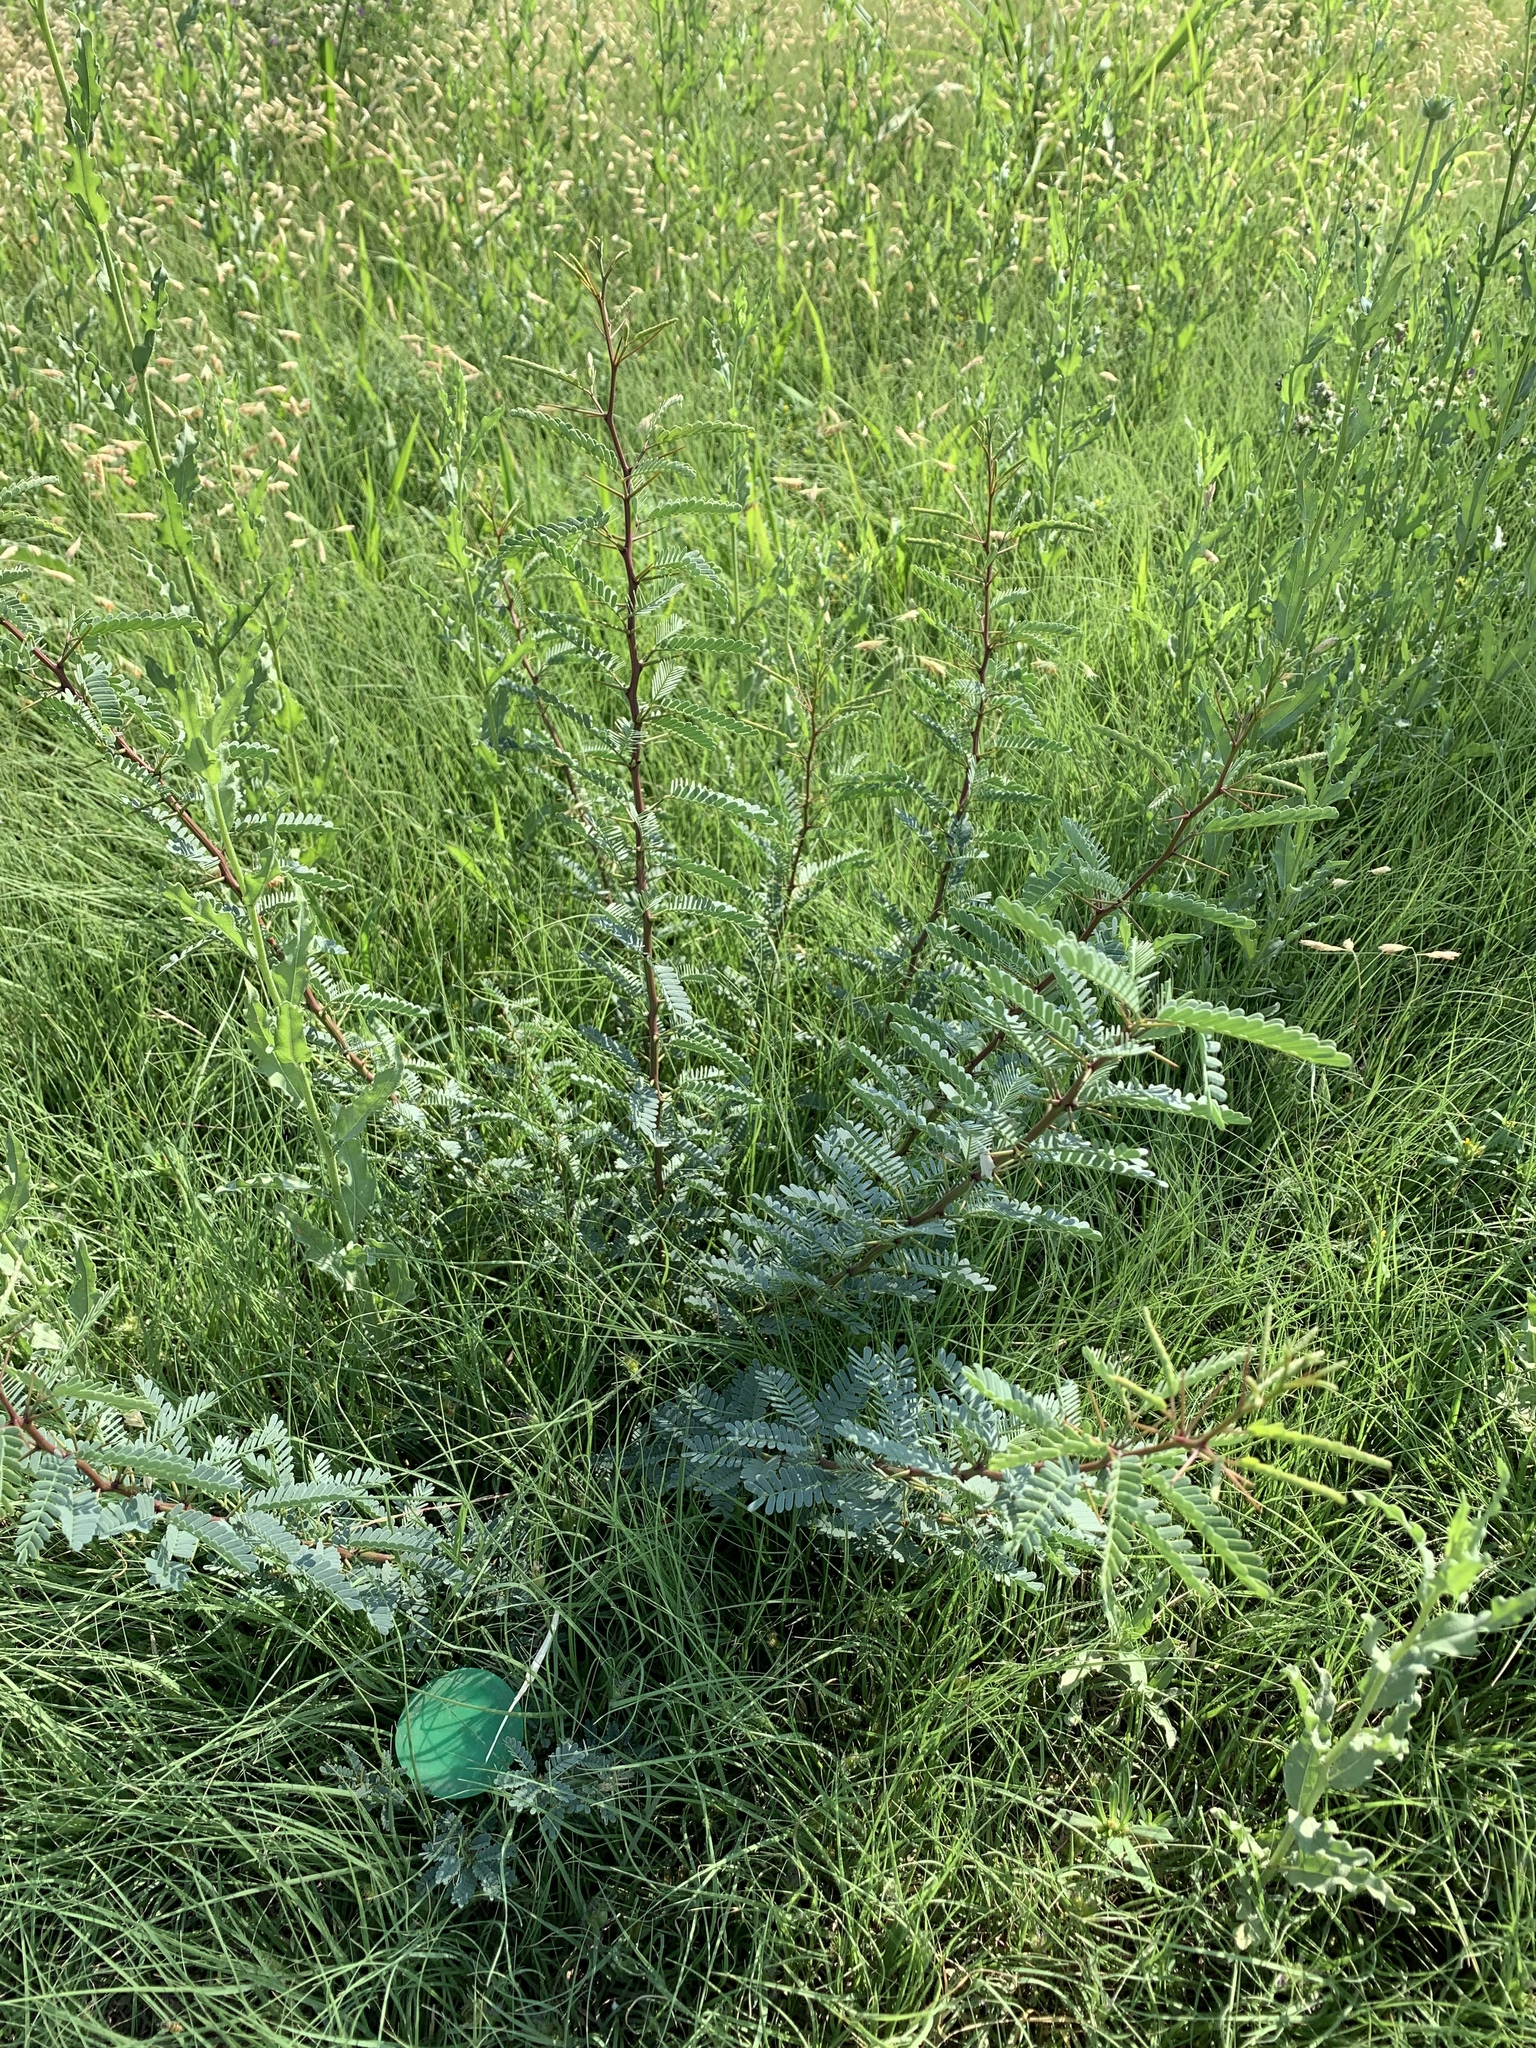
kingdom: Plantae
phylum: Tracheophyta
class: Magnoliopsida
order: Fabales
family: Fabaceae
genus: Prosopis
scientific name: Prosopis glandulosa
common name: Honey mesquite
